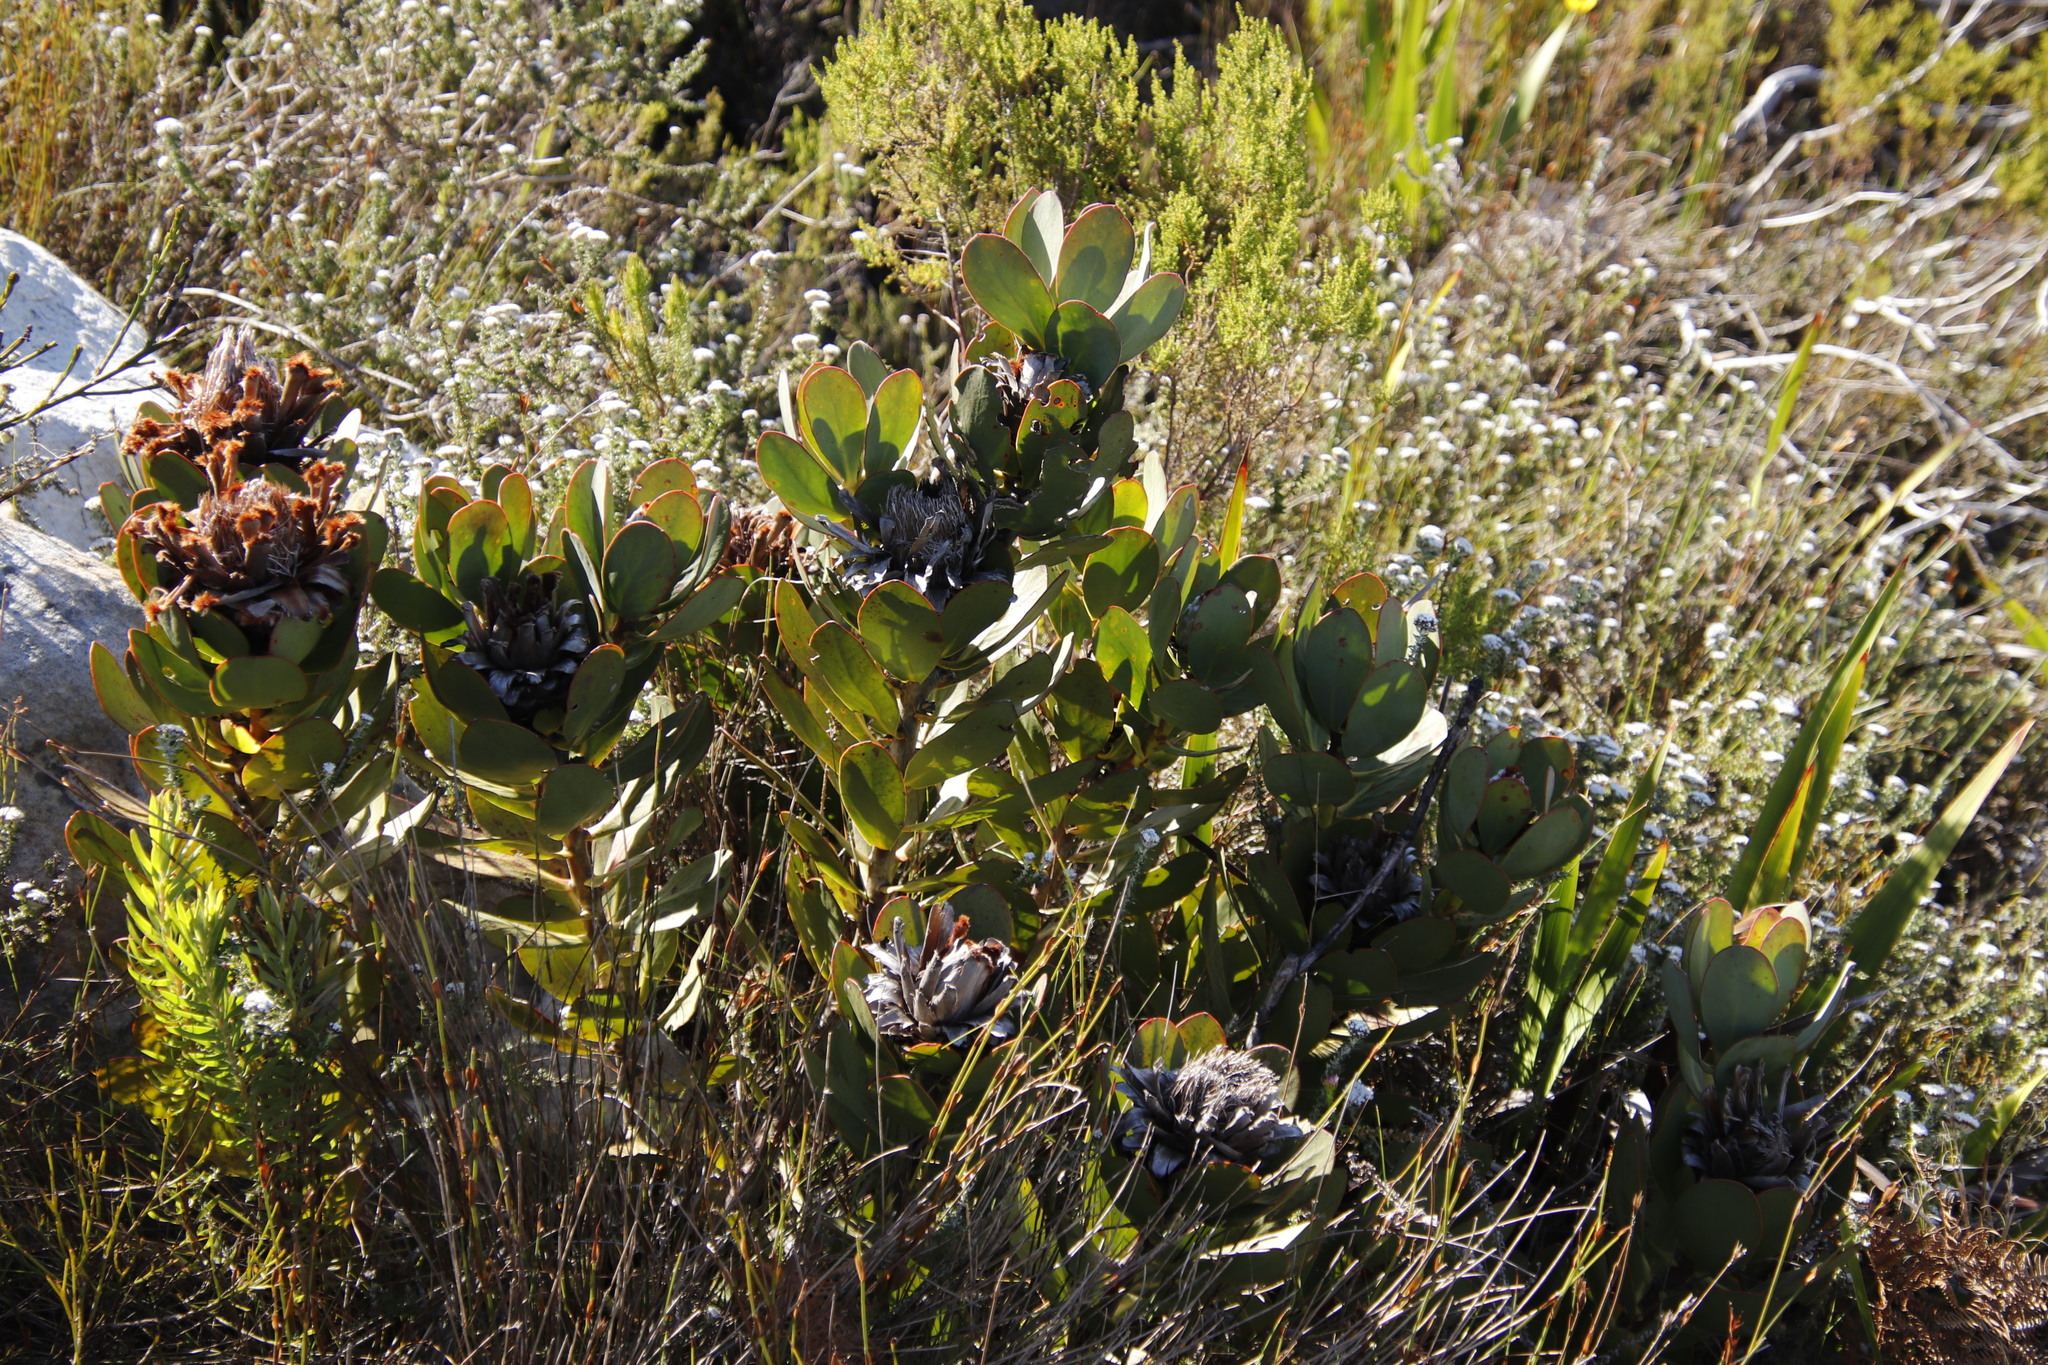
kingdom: Plantae
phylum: Tracheophyta
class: Magnoliopsida
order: Proteales
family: Proteaceae
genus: Protea
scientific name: Protea speciosa
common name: Brown-beard sugarbush
